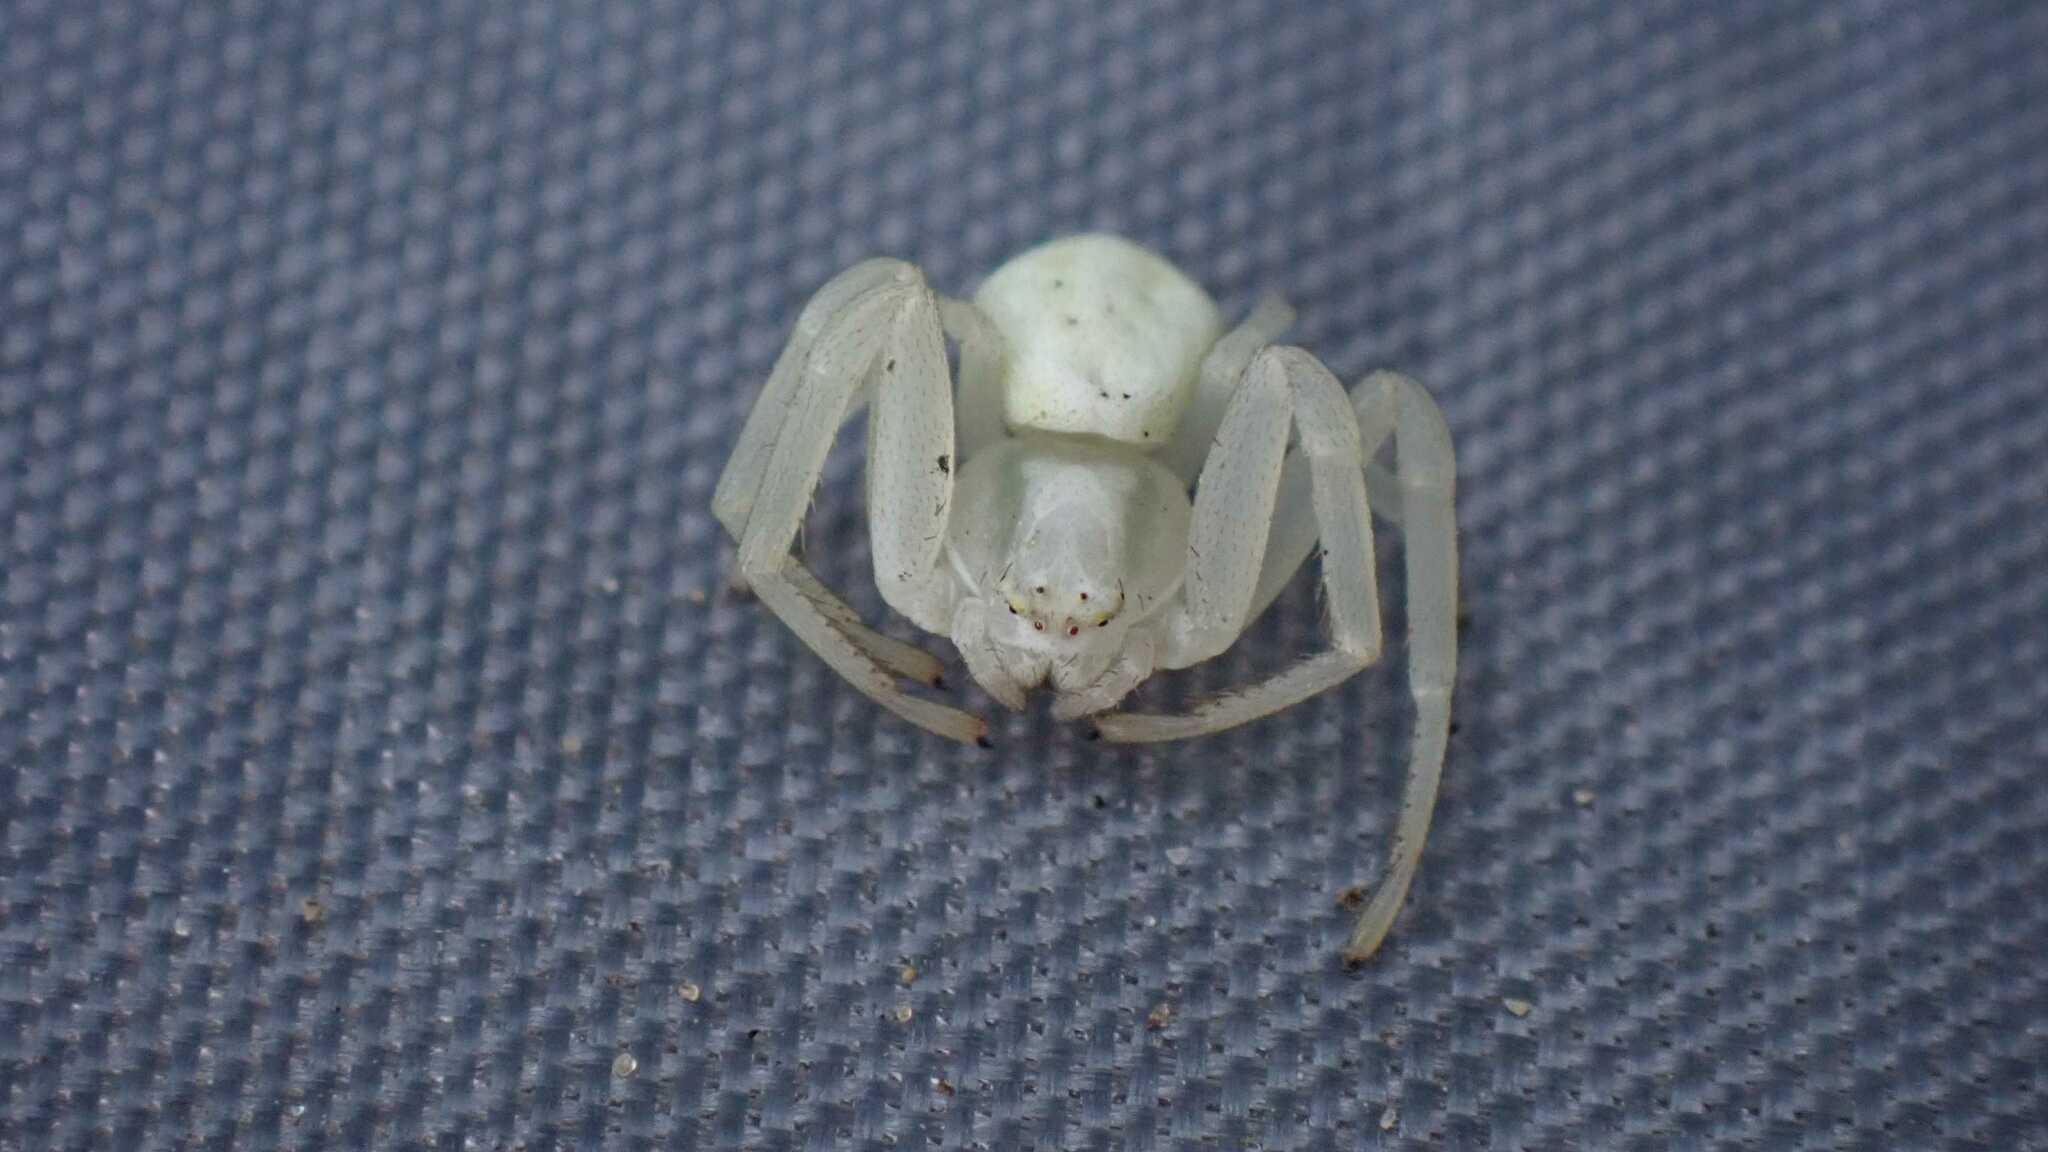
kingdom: Animalia
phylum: Arthropoda
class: Arachnida
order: Araneae
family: Thomisidae
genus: Misumena
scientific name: Misumena vatia
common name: Goldenrod crab spider
